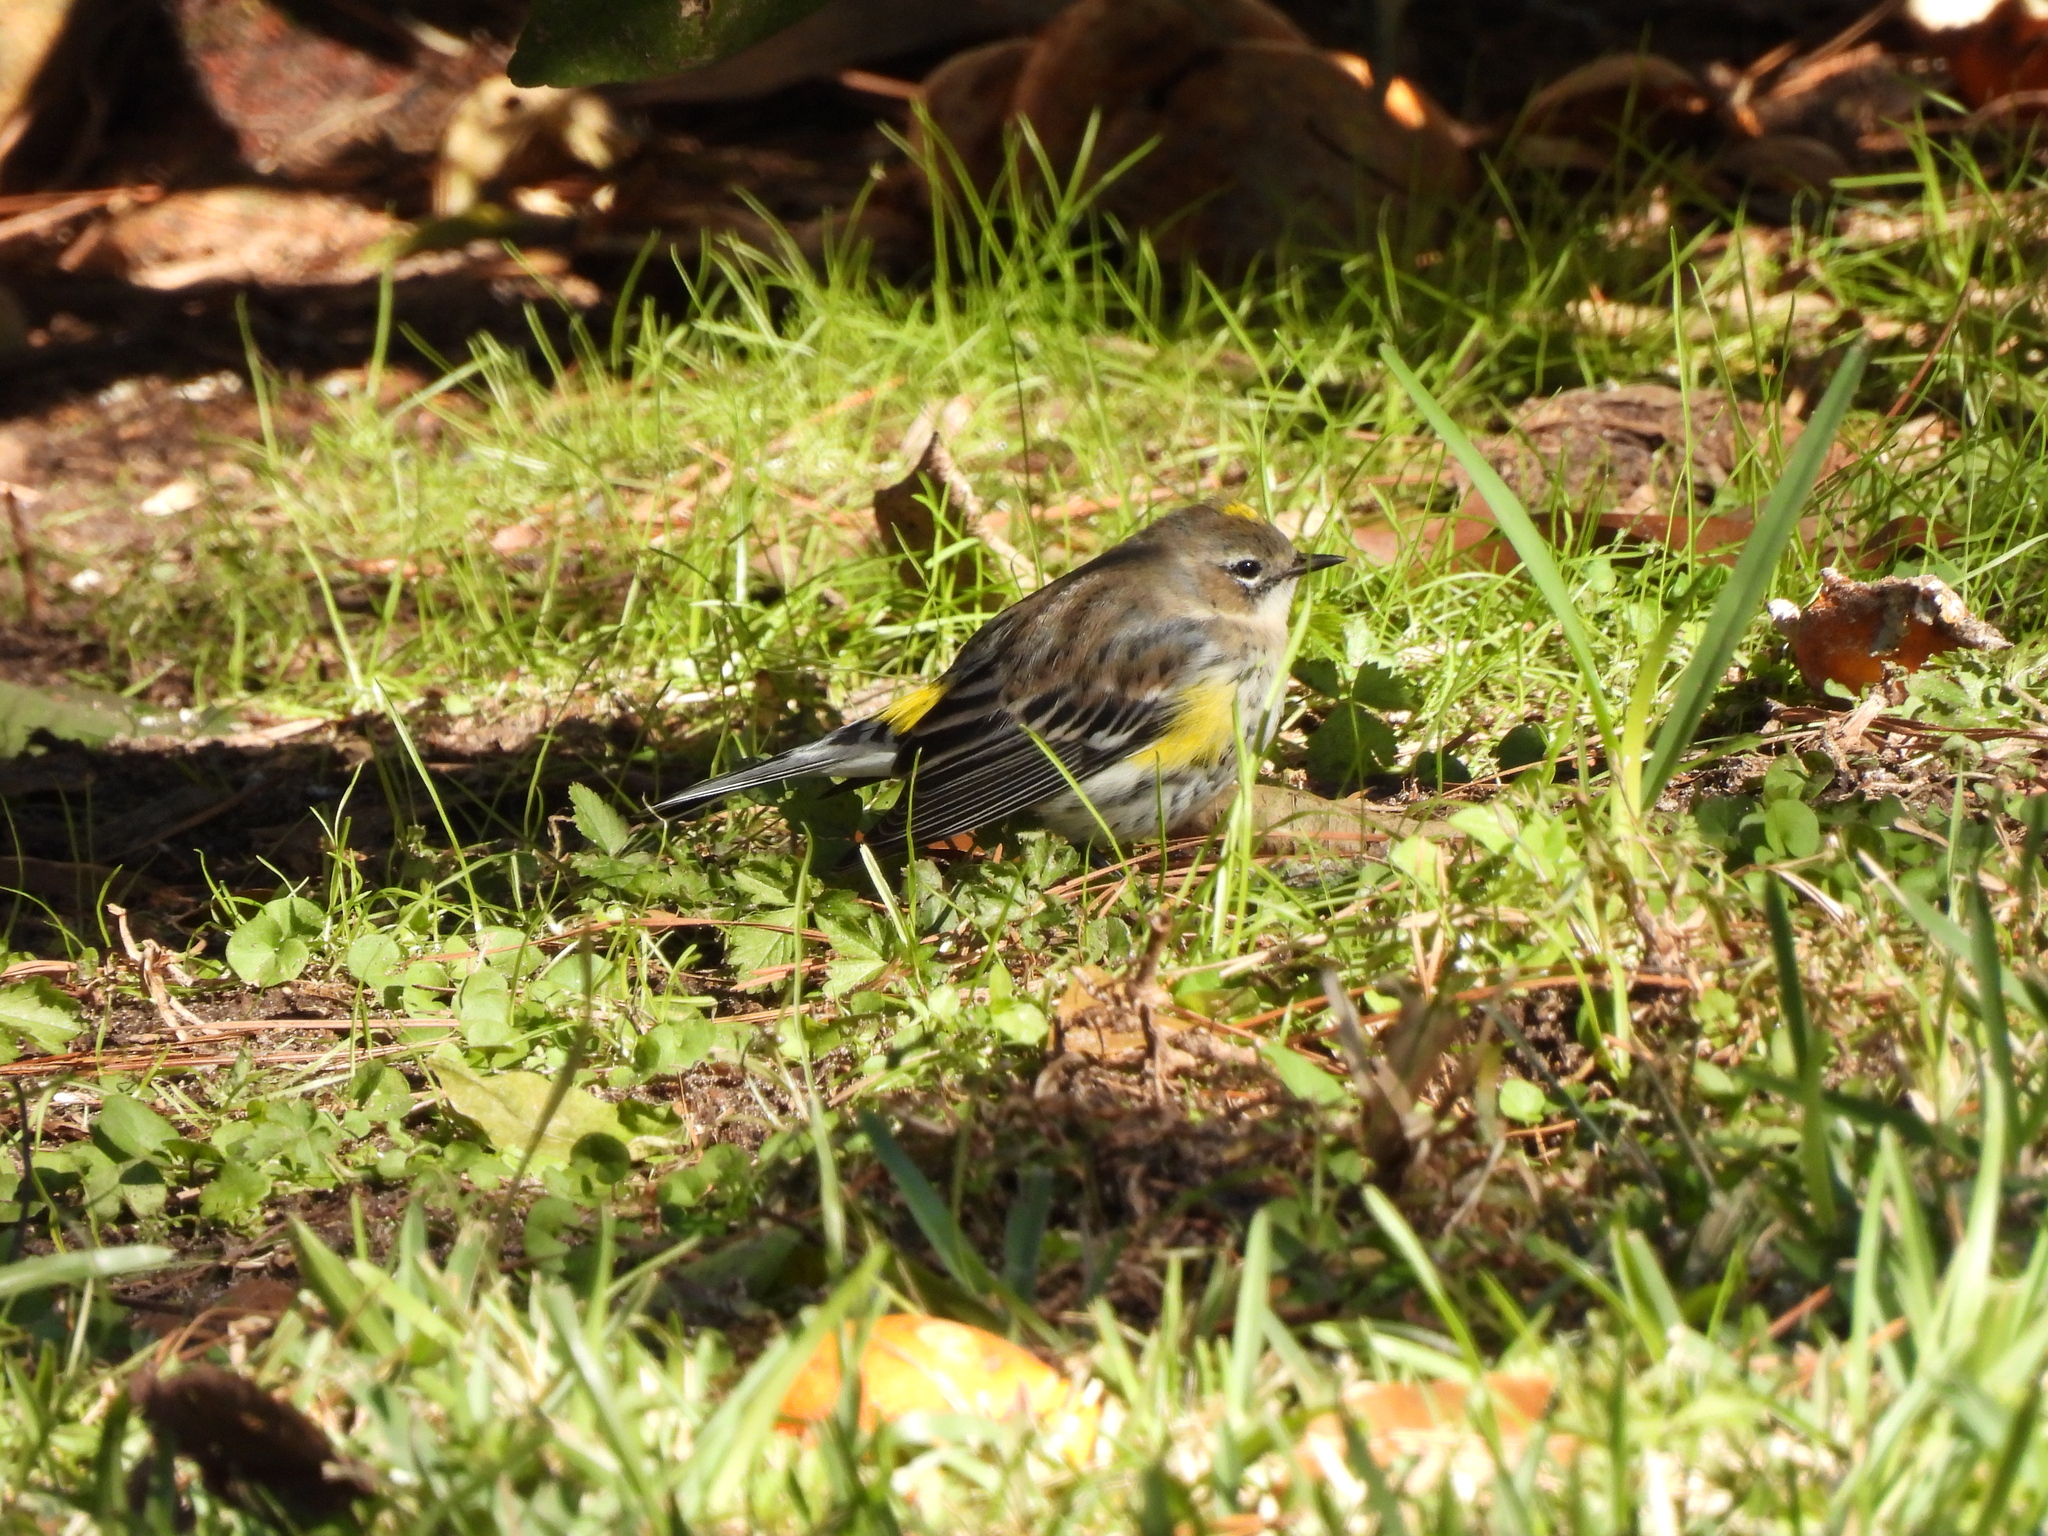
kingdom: Animalia
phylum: Chordata
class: Aves
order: Passeriformes
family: Parulidae
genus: Setophaga
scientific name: Setophaga coronata
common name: Myrtle warbler
